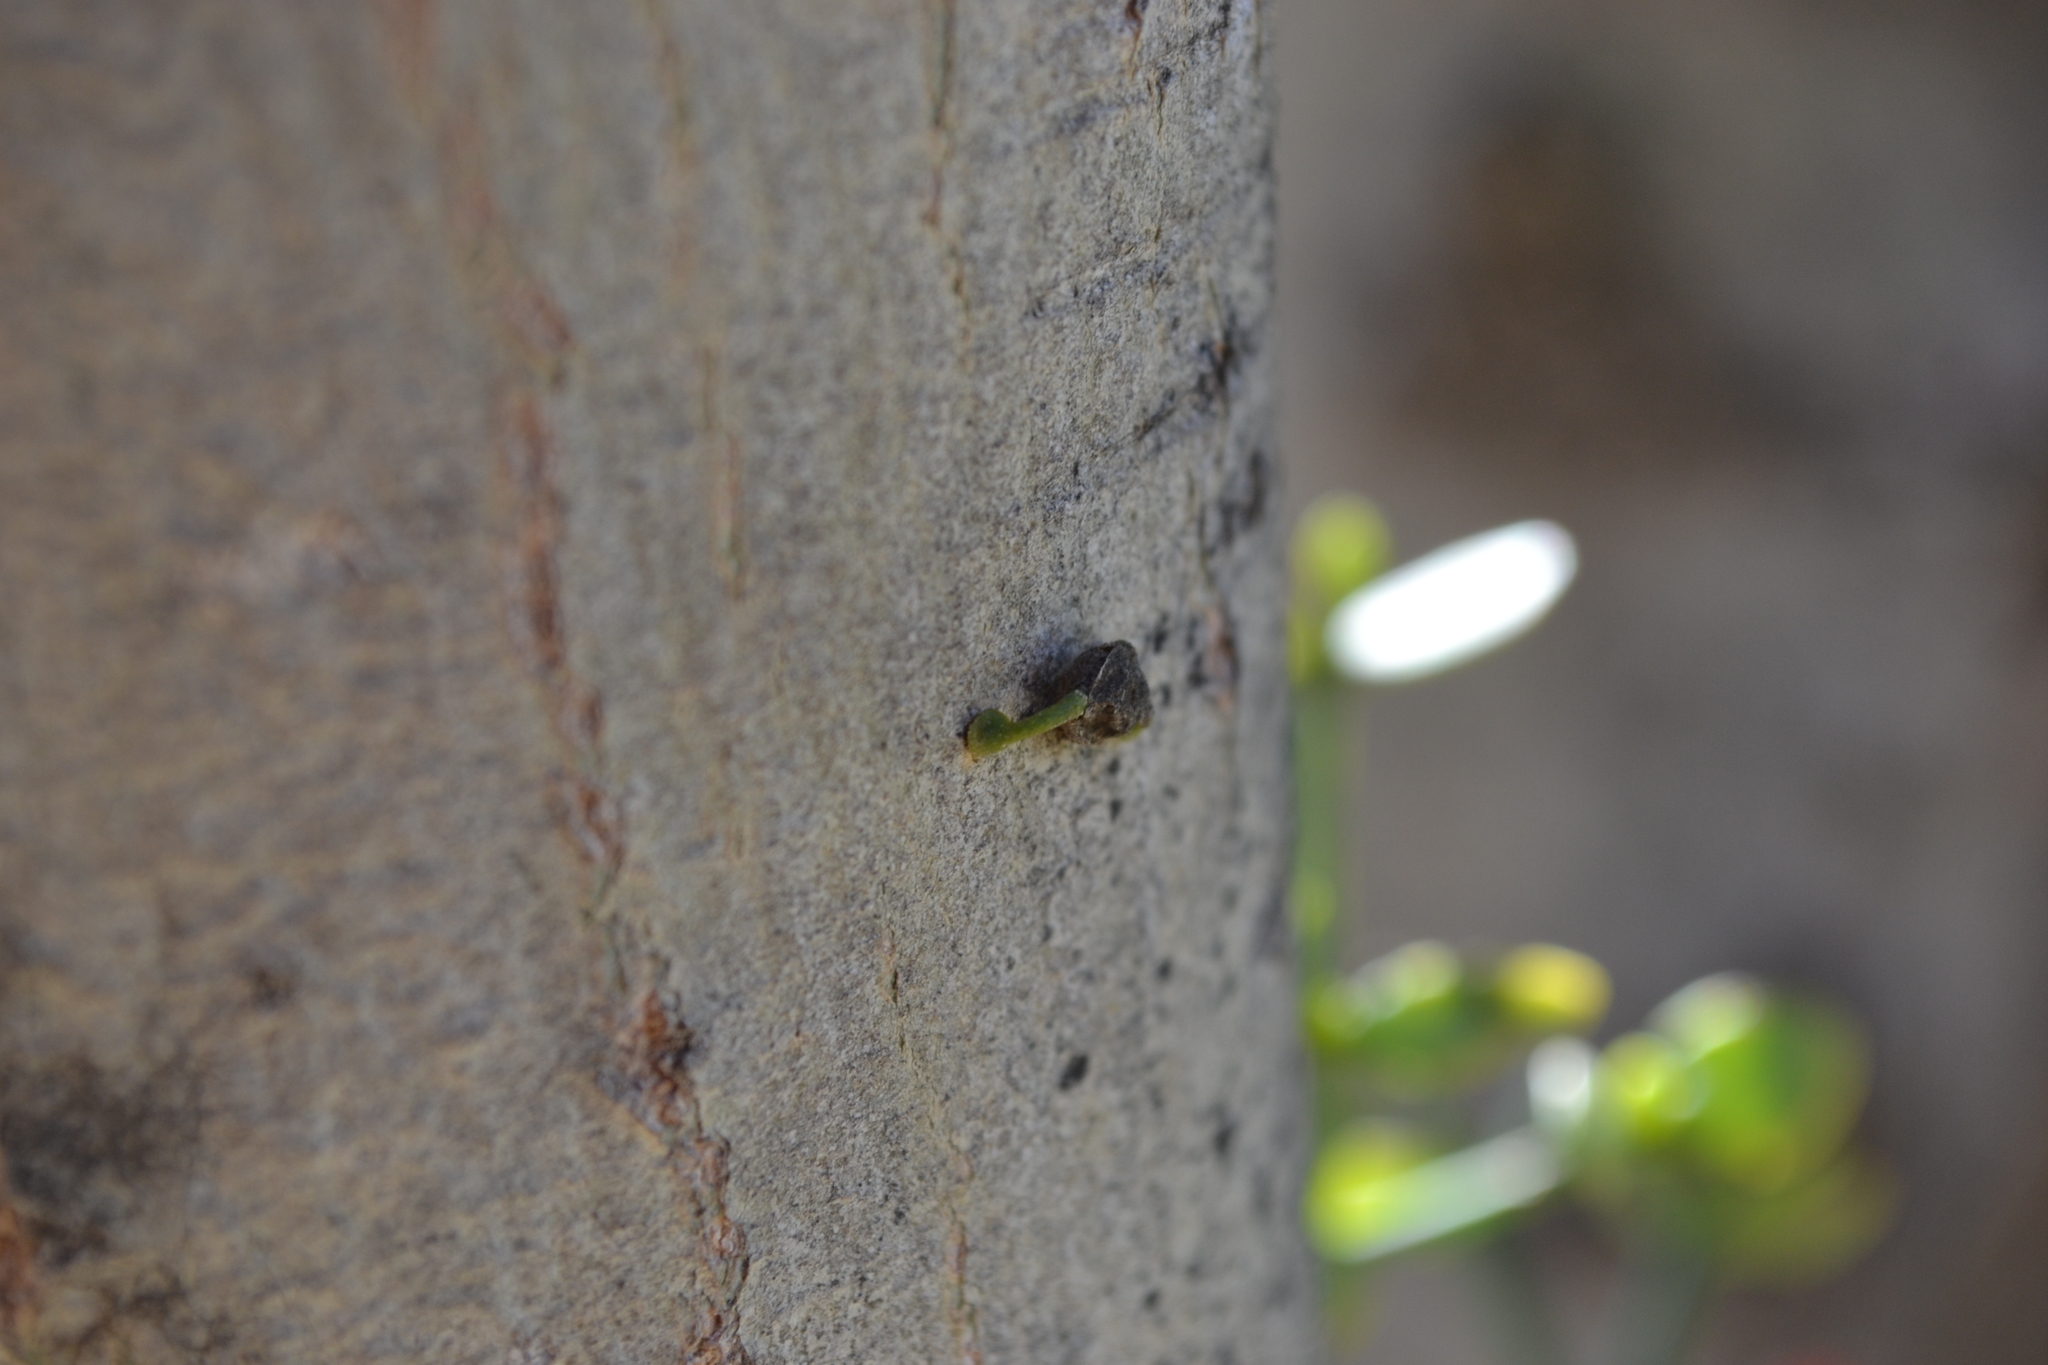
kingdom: Plantae
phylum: Tracheophyta
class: Magnoliopsida
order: Santalales
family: Viscaceae
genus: Viscum
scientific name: Viscum rotundifolium
